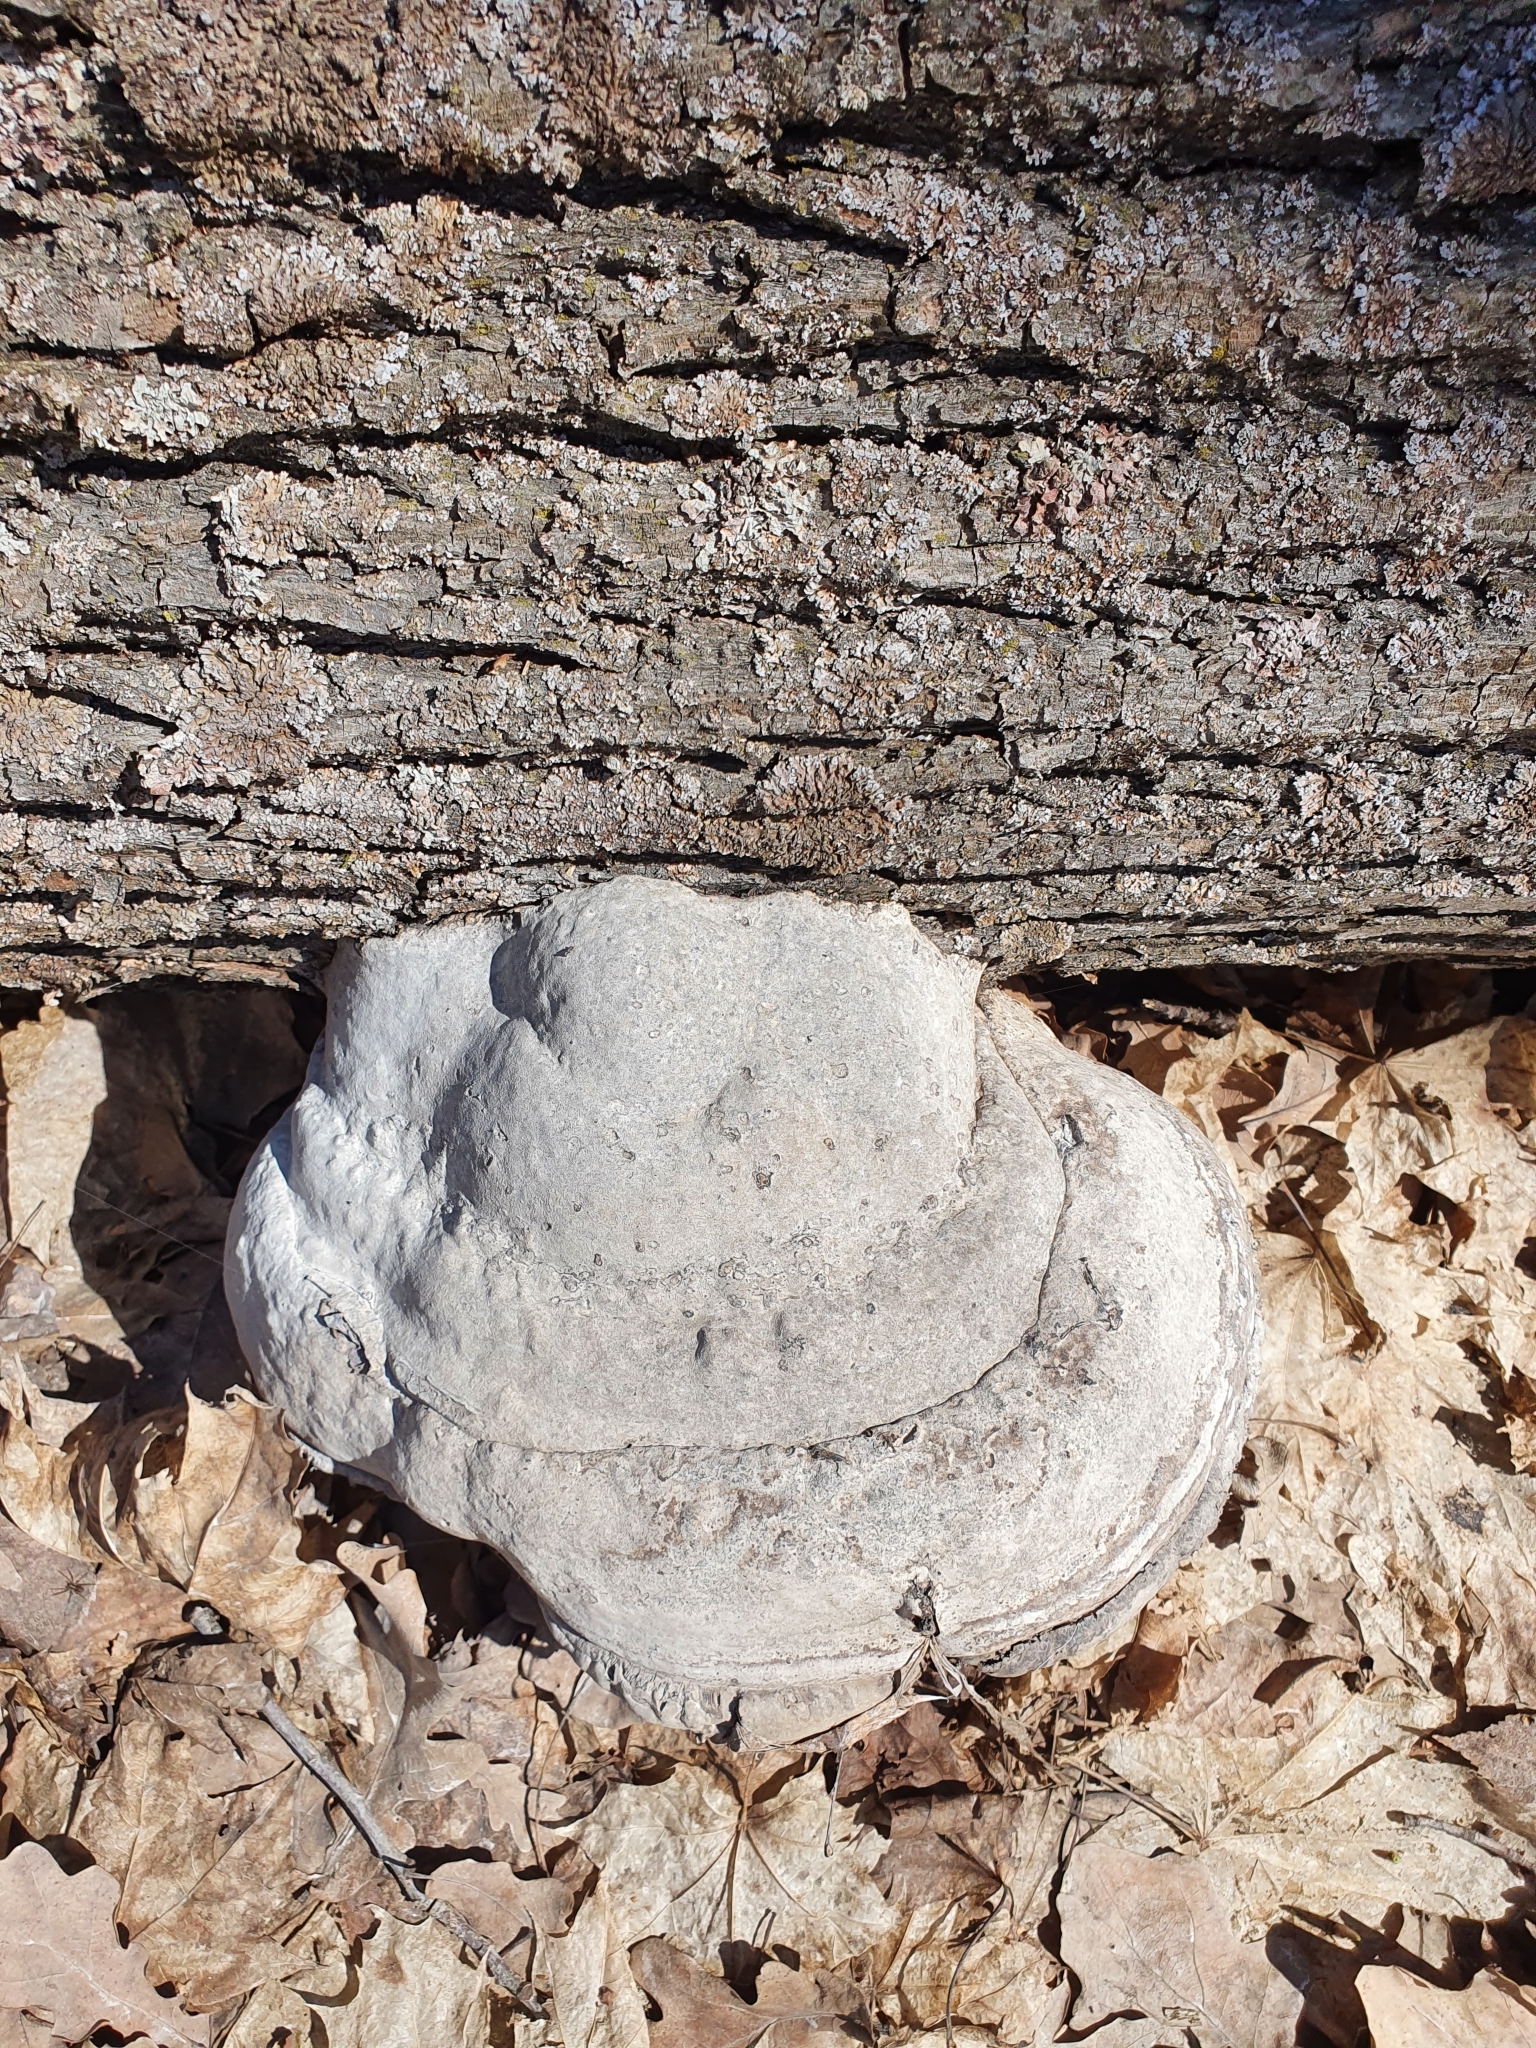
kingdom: Fungi
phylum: Basidiomycota
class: Agaricomycetes
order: Polyporales
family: Polyporaceae
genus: Fomes
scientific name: Fomes fomentarius
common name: Hoof fungus
